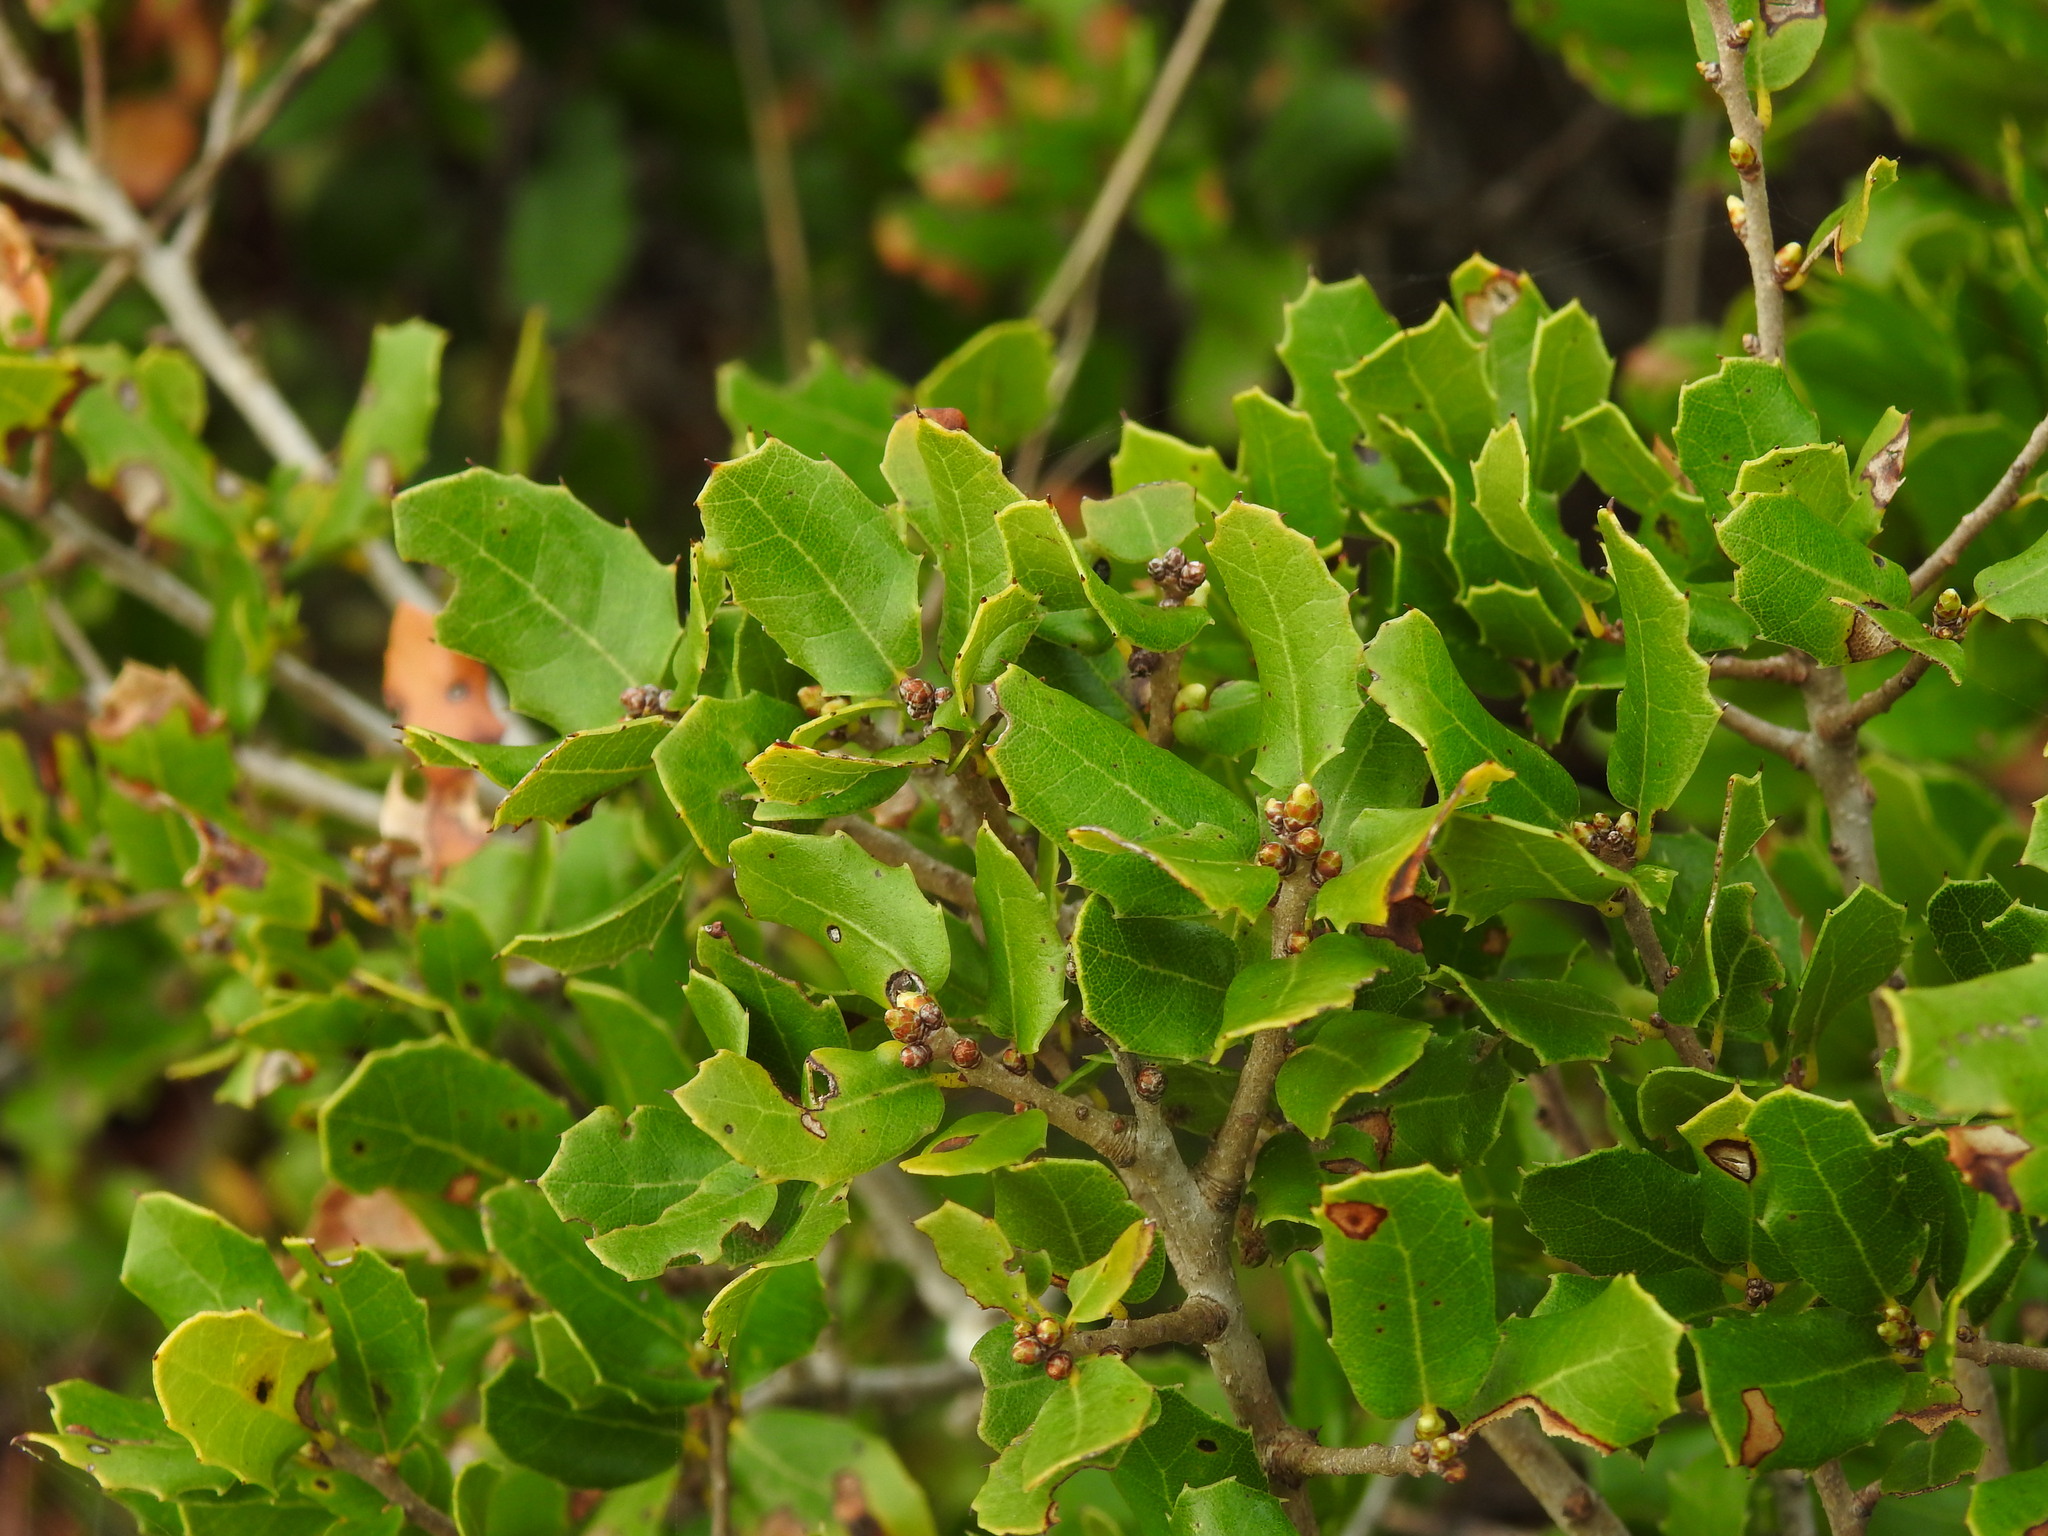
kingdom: Plantae
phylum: Tracheophyta
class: Magnoliopsida
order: Fagales
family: Fagaceae
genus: Quercus
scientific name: Quercus coccifera
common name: Kermes oak
